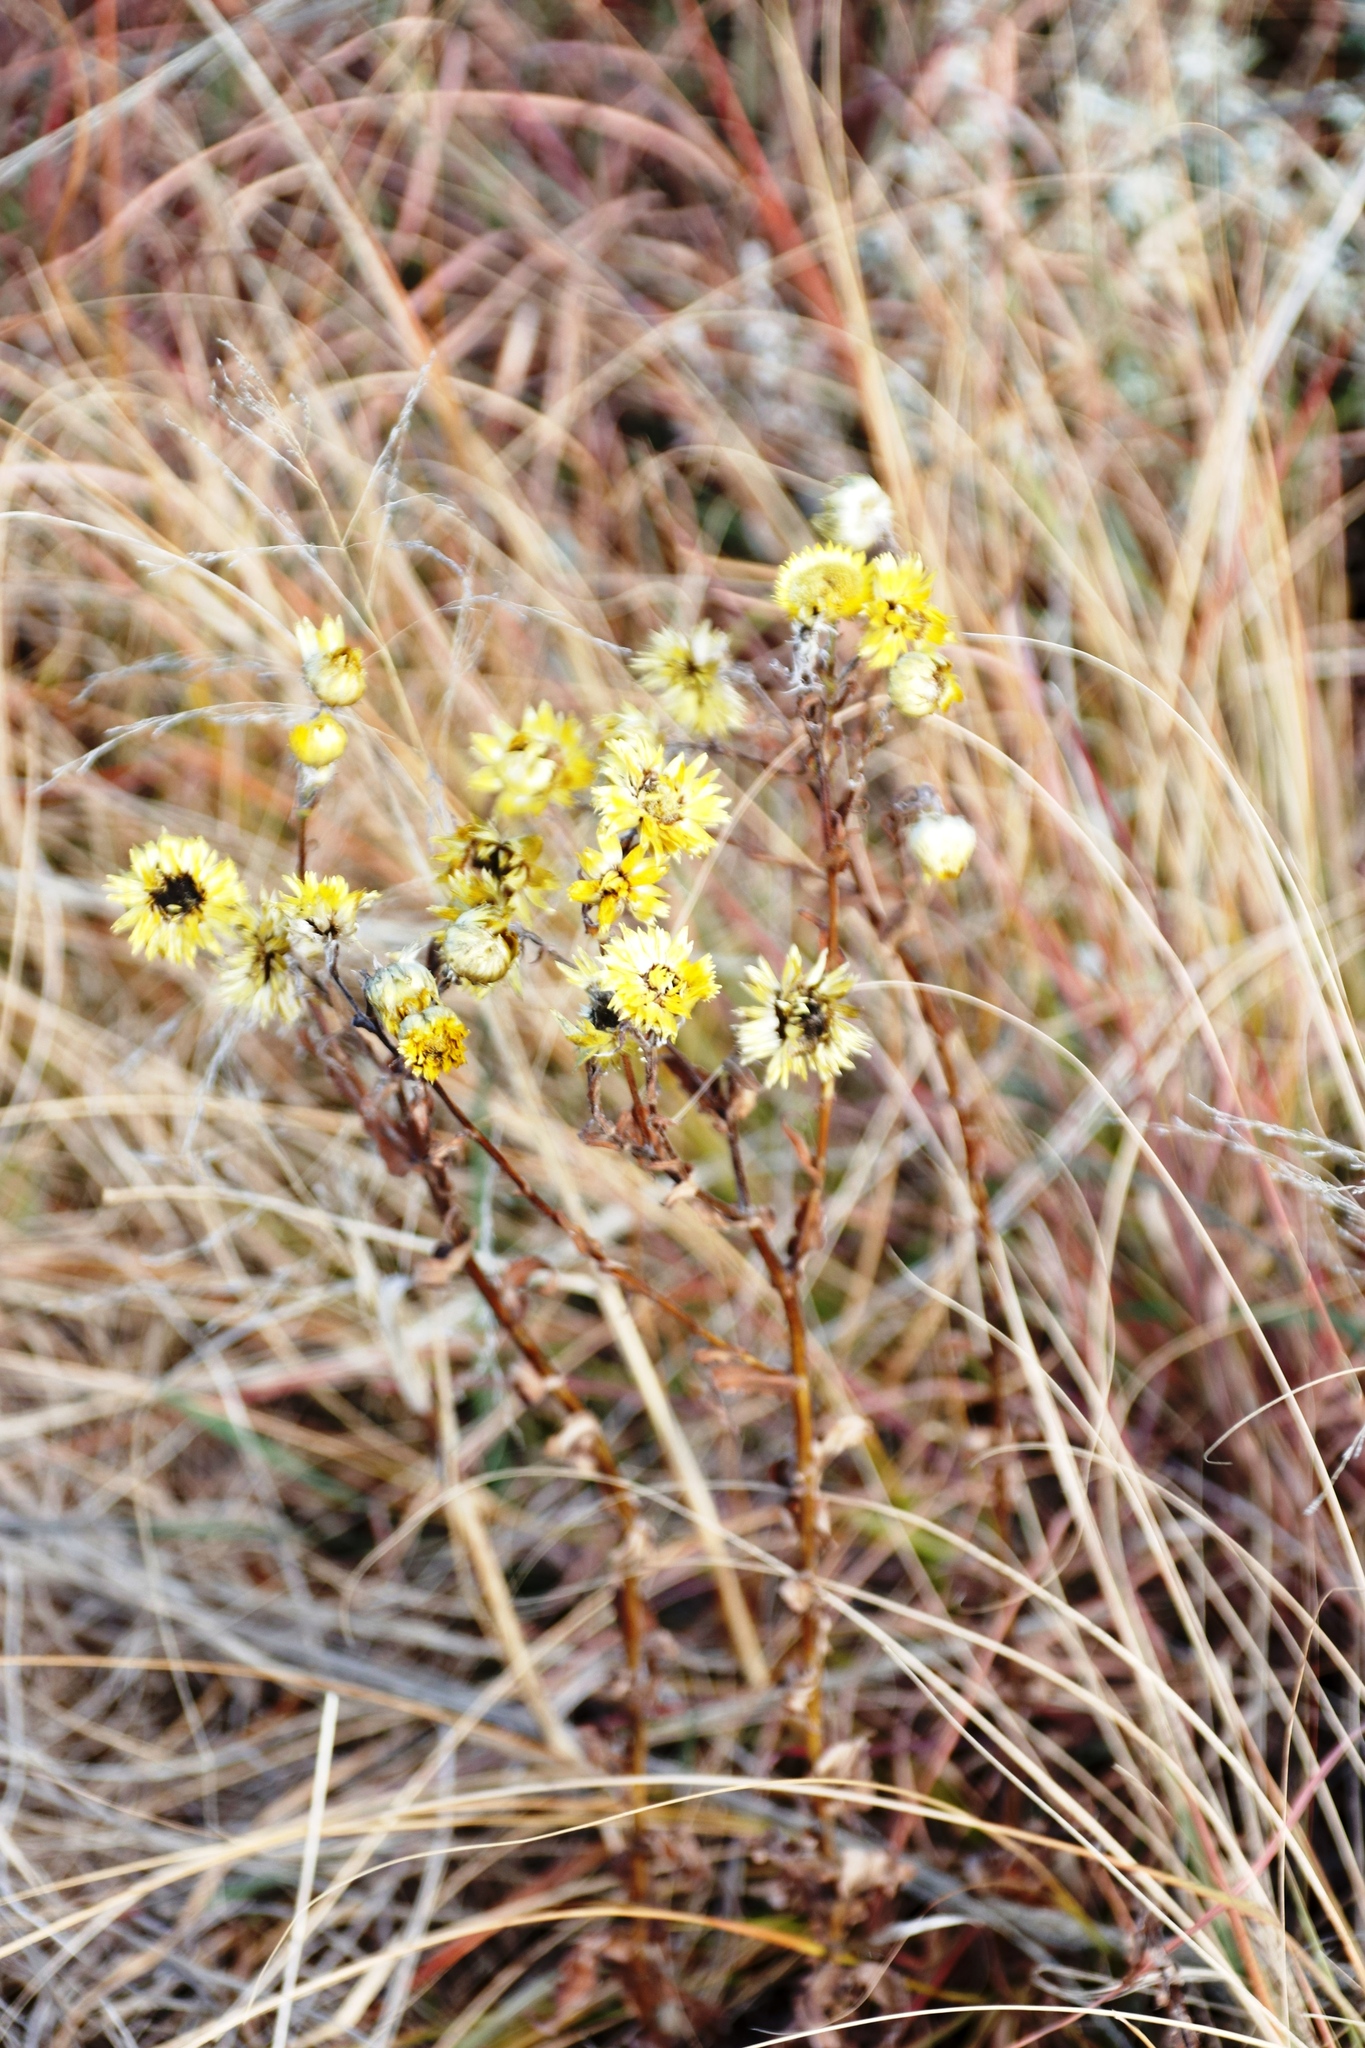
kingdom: Plantae
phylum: Tracheophyta
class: Magnoliopsida
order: Asterales
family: Asteraceae
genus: Helichrysum
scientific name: Helichrysum cooperi
